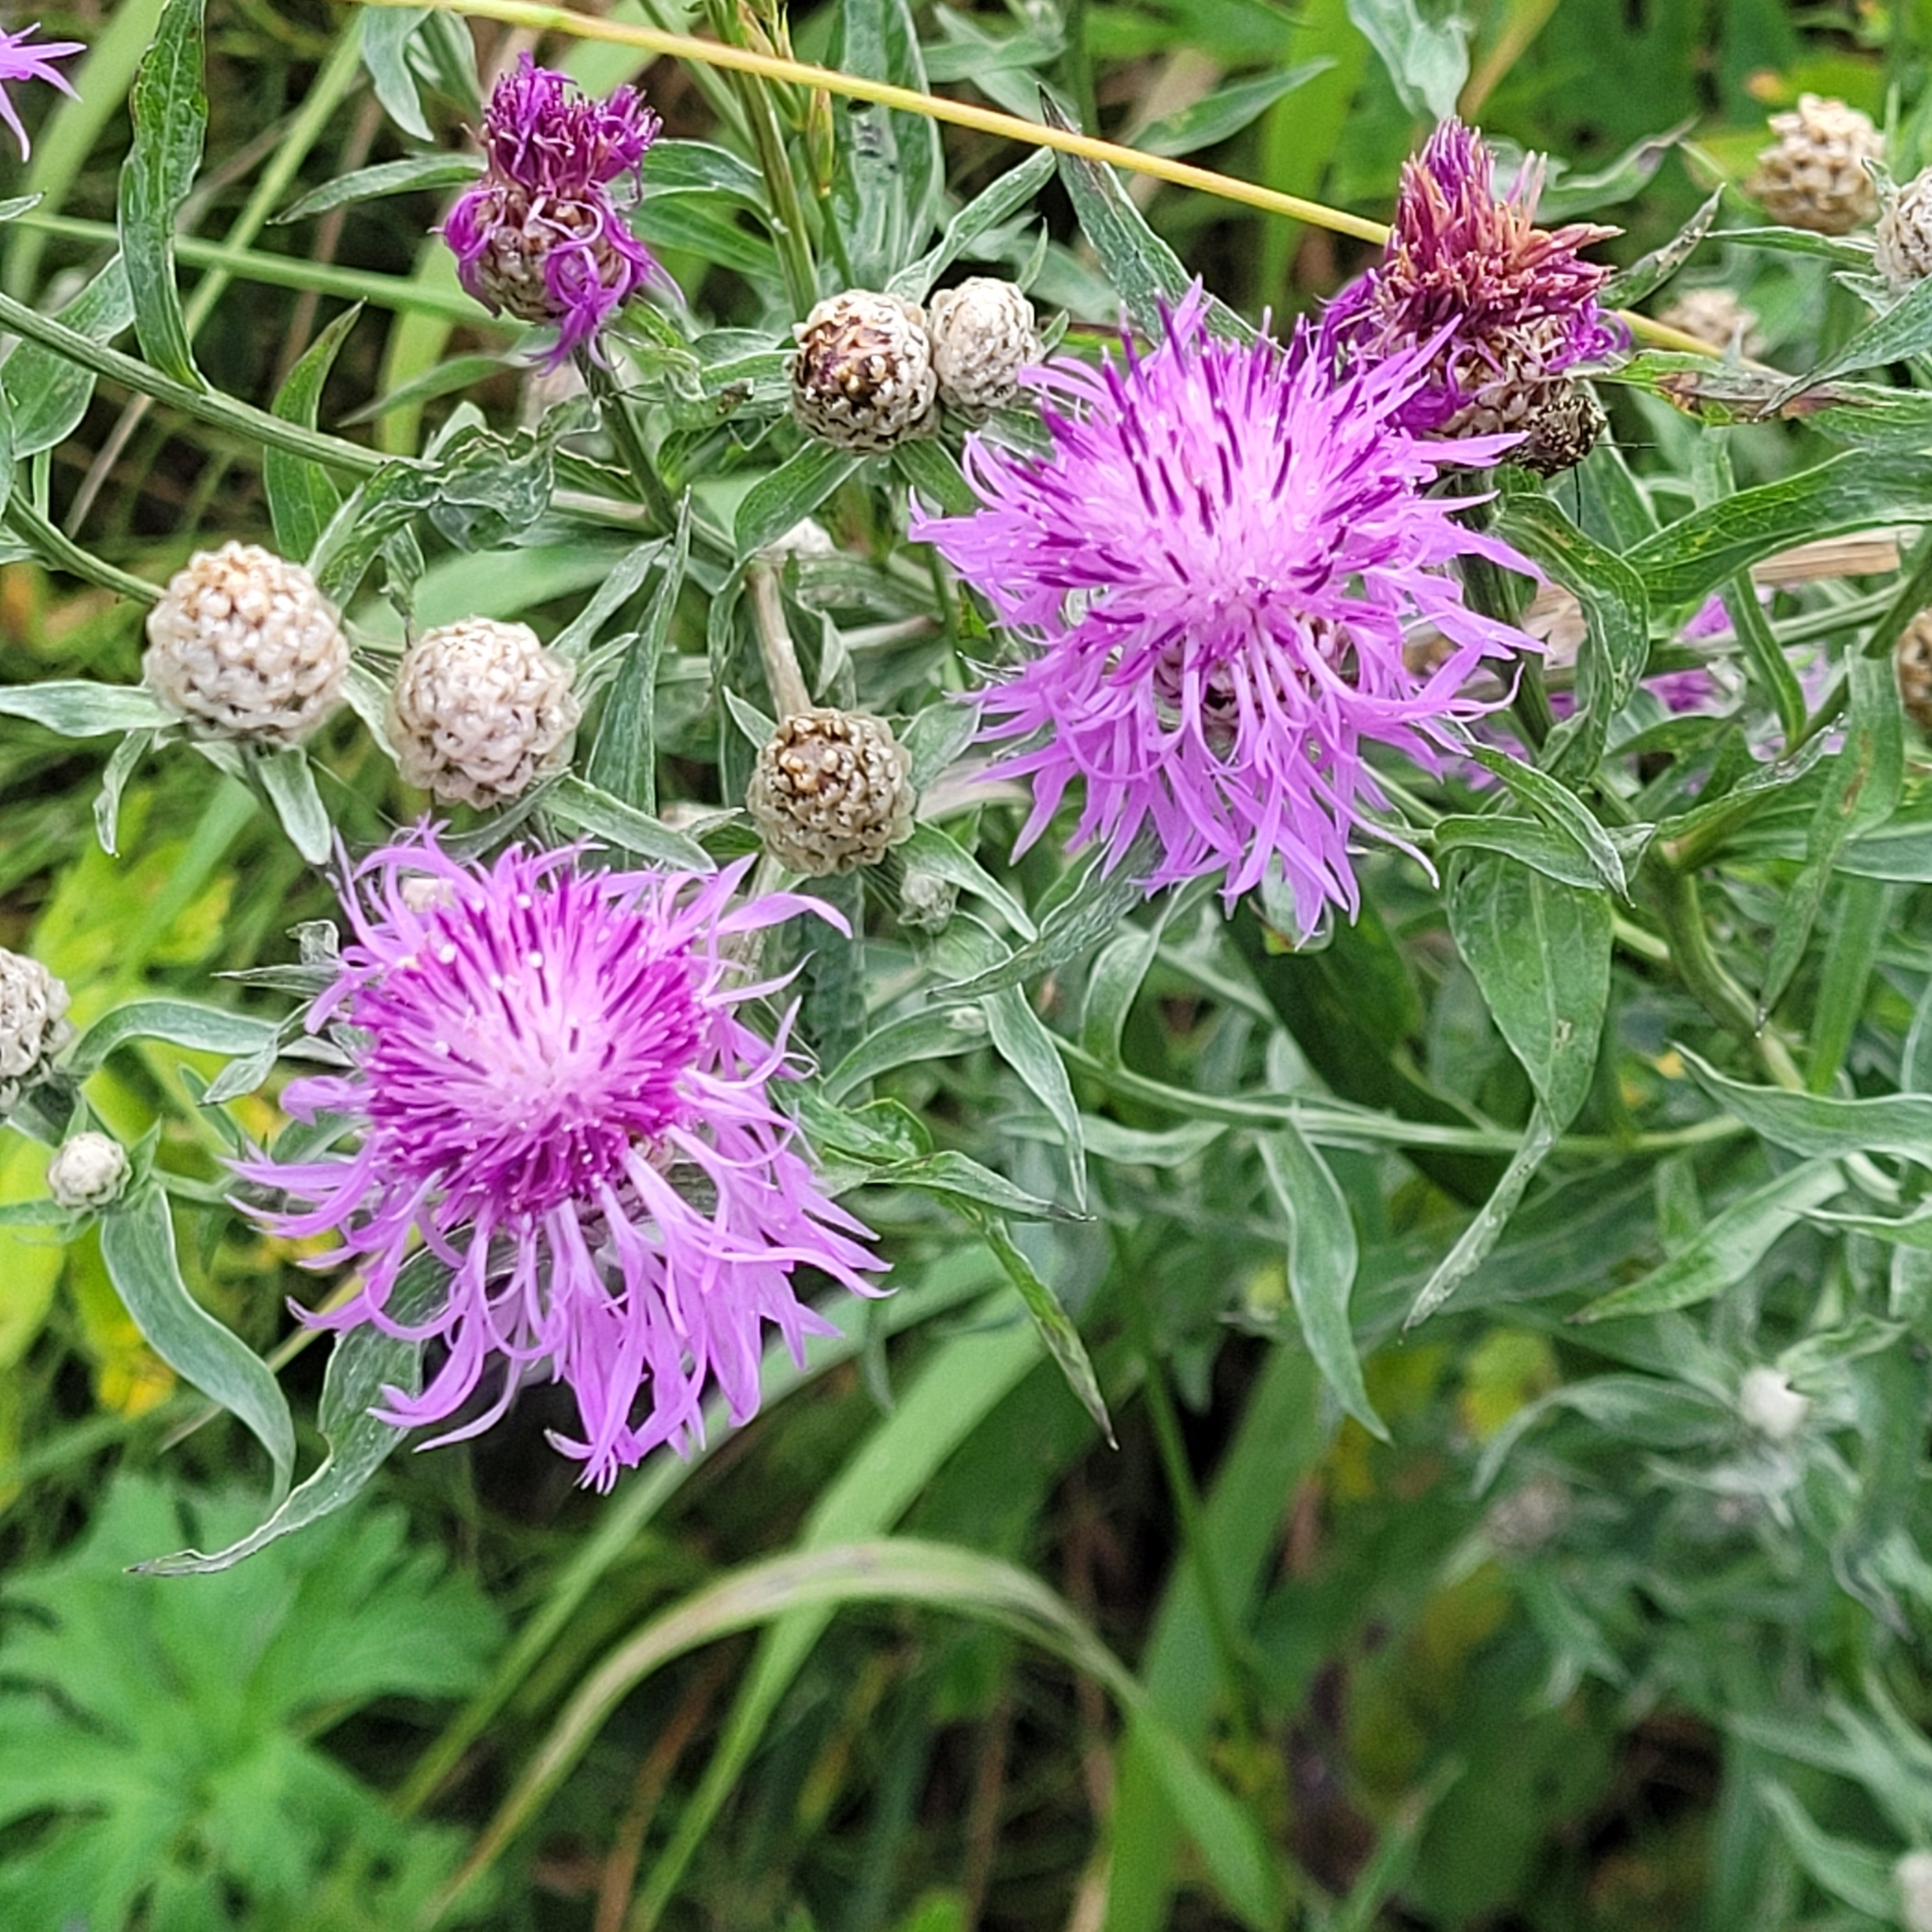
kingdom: Plantae
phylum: Tracheophyta
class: Magnoliopsida
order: Asterales
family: Asteraceae
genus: Centaurea
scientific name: Centaurea jacea
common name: Brown knapweed
